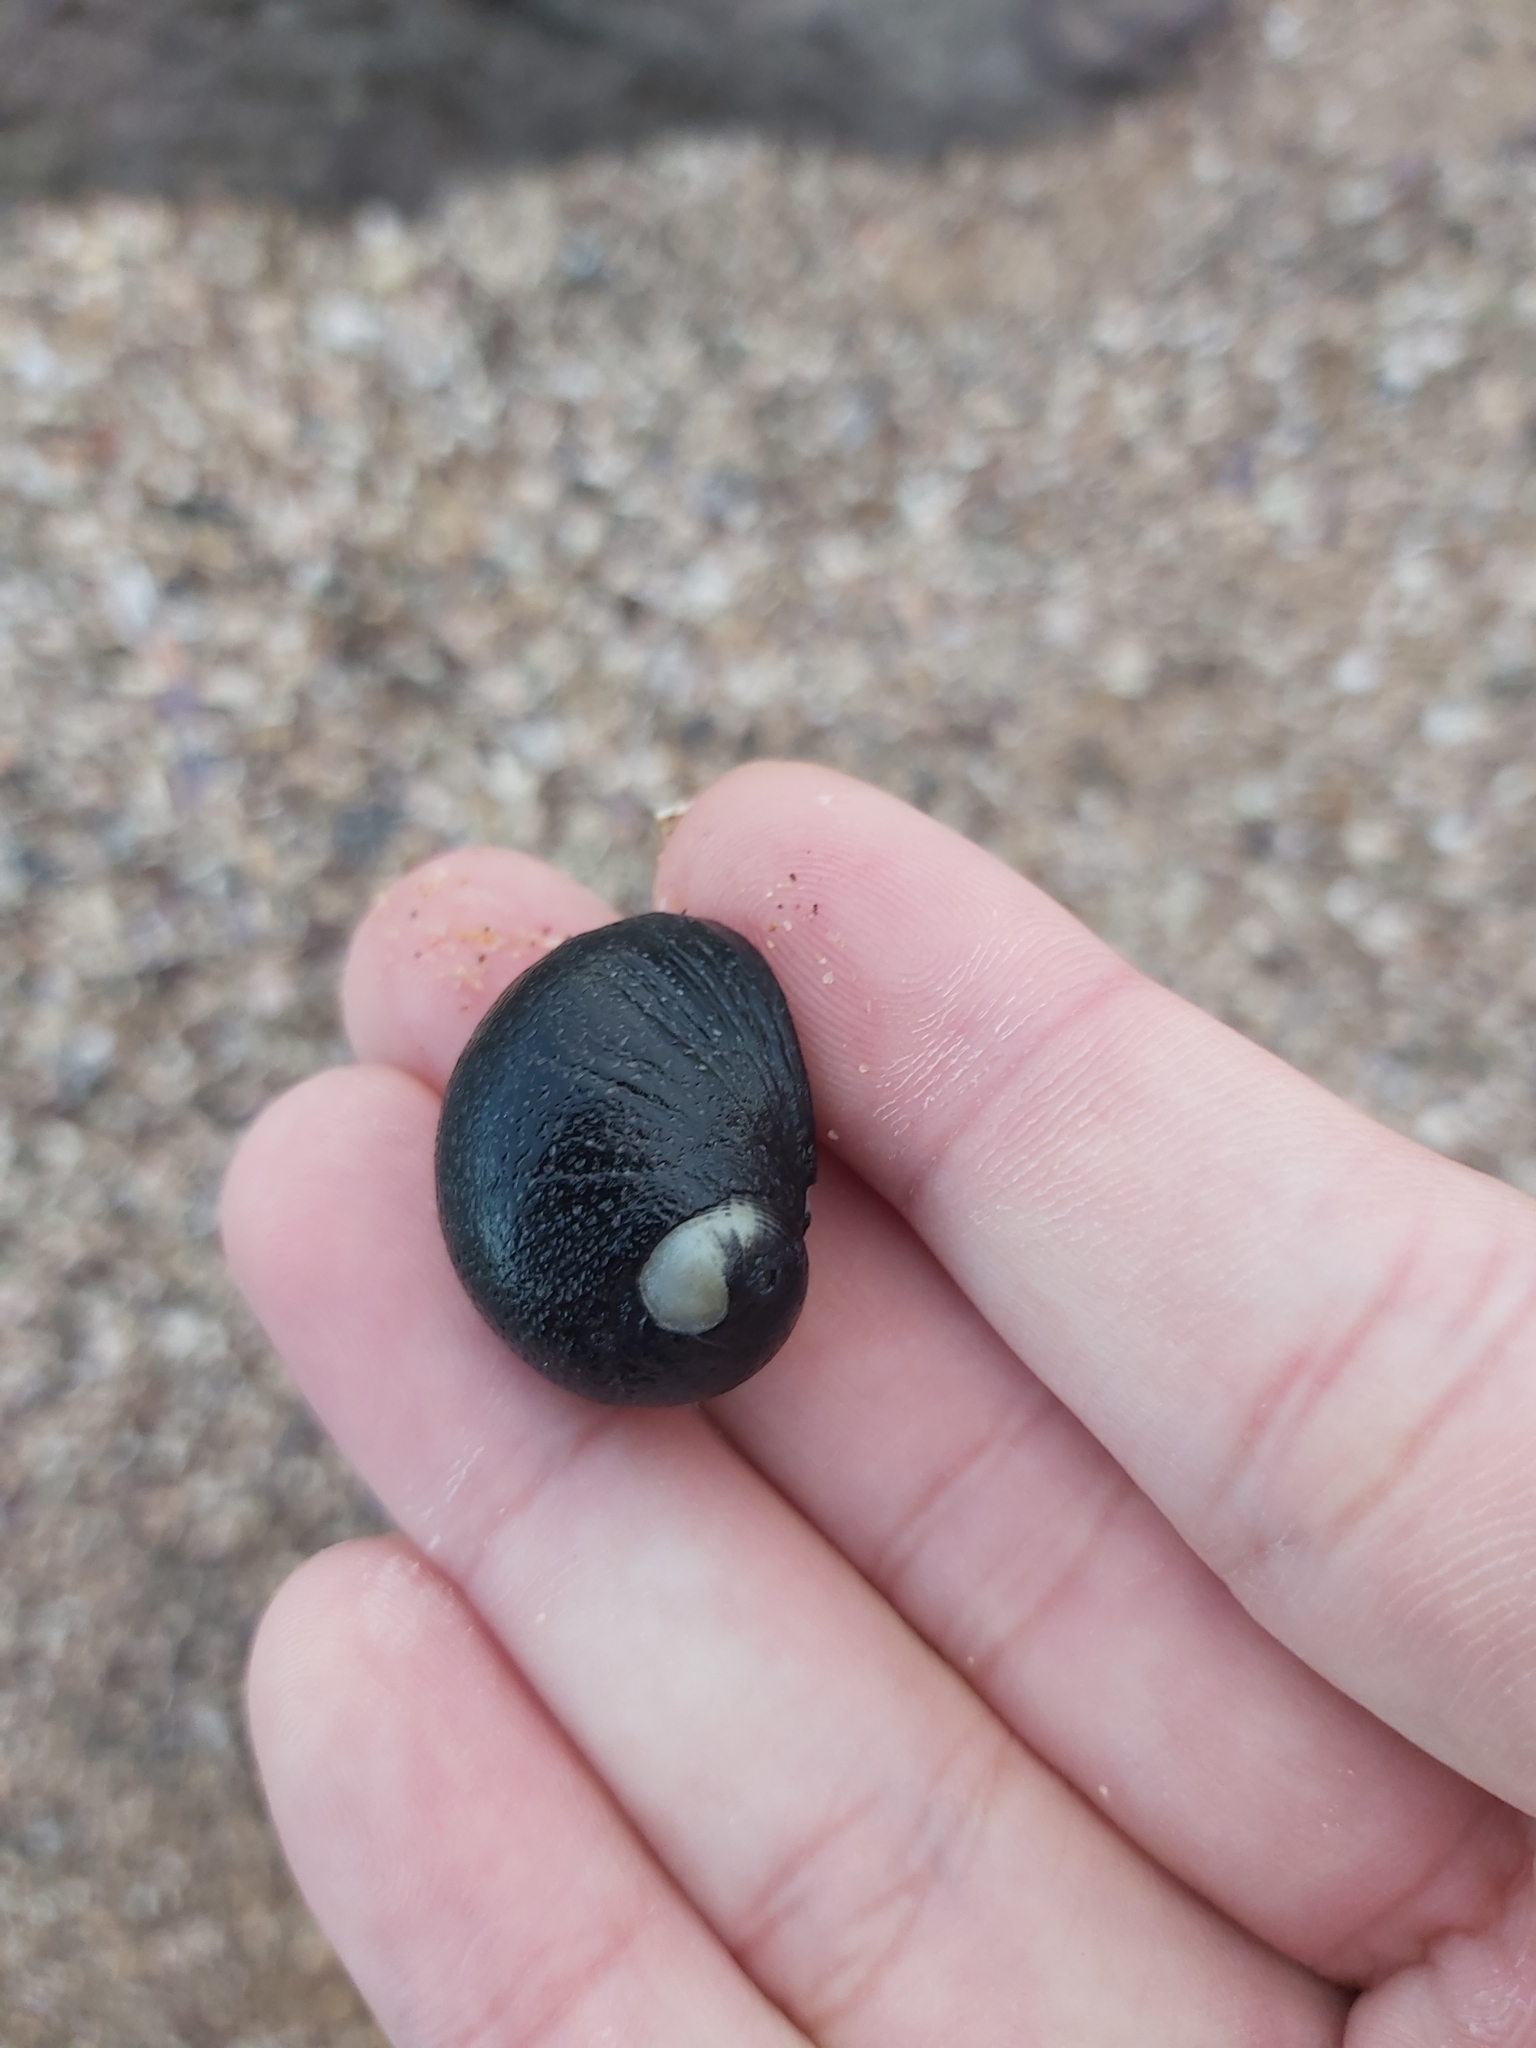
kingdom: Animalia
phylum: Mollusca
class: Gastropoda
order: Cycloneritida
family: Neritidae
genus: Nerita
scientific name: Nerita melanotragus
